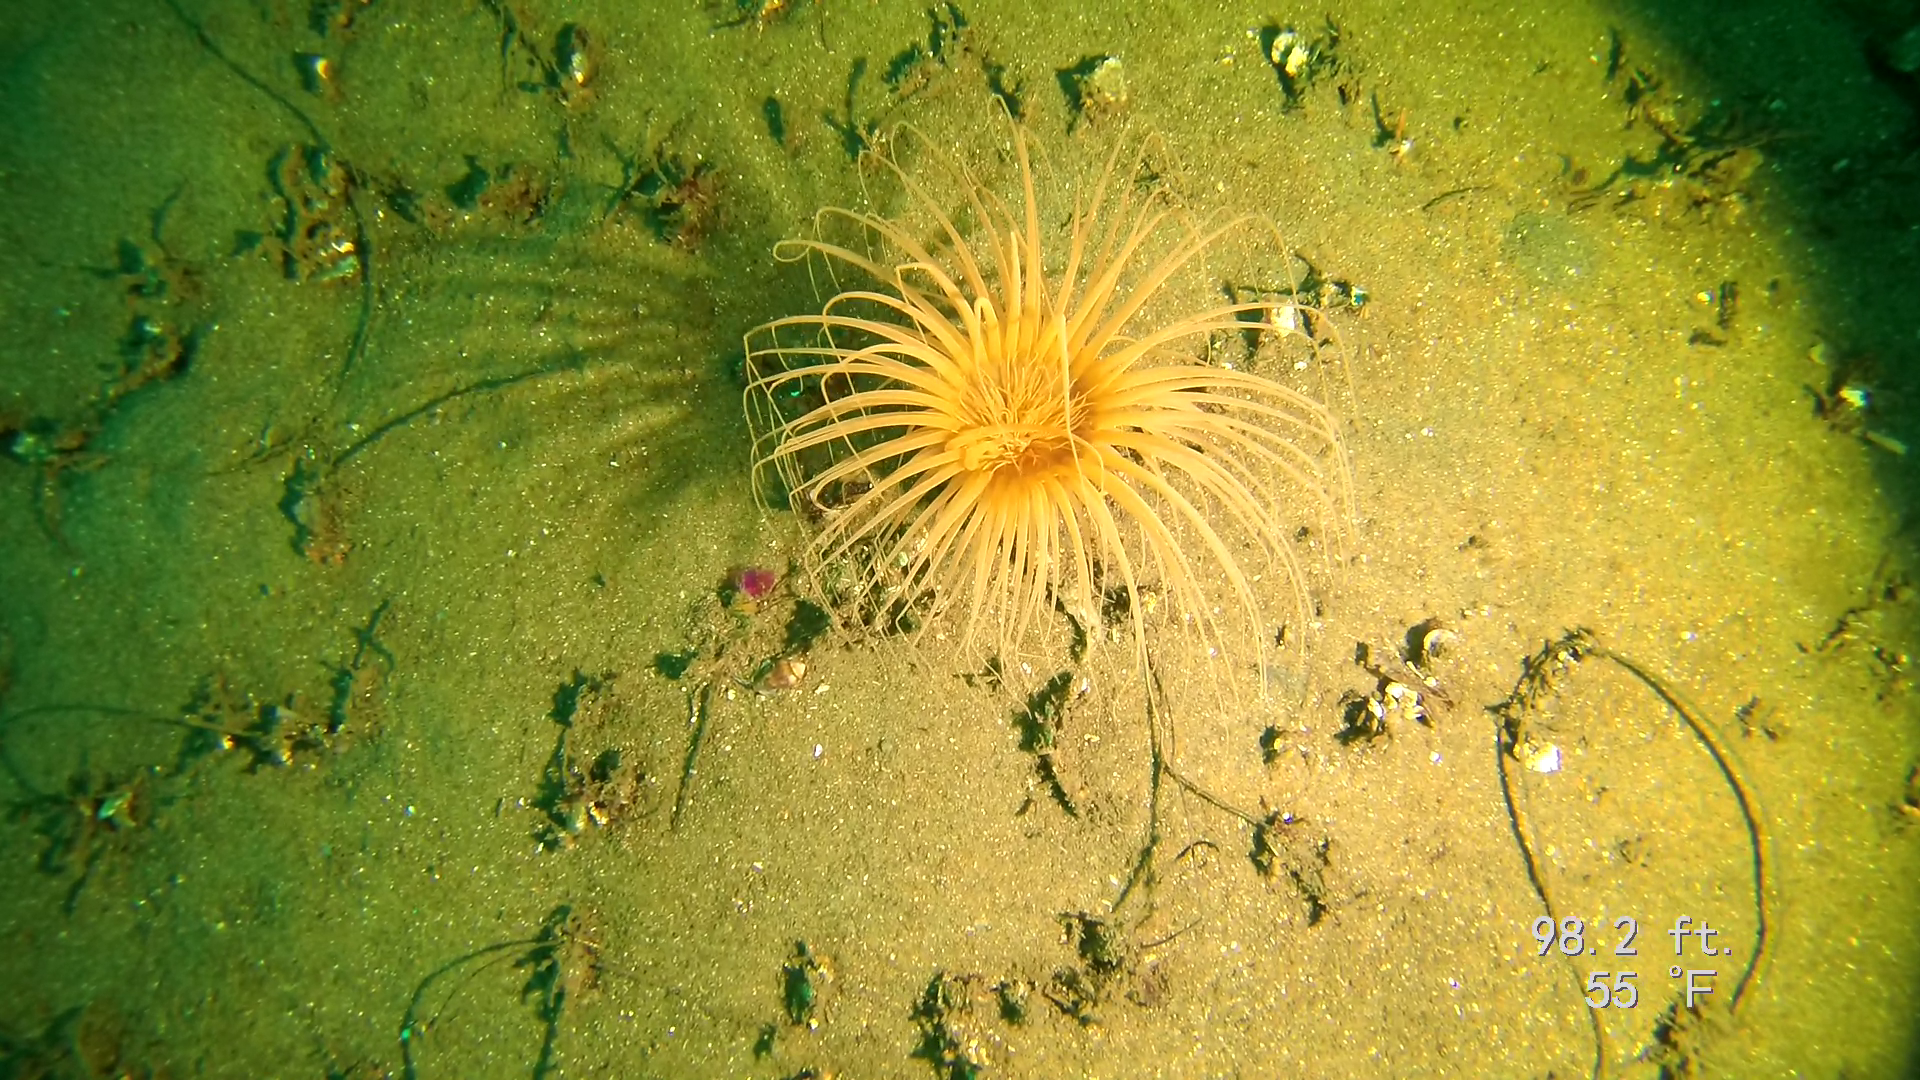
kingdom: Animalia
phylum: Cnidaria
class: Anthozoa
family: Cerianthidae
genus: Pachycerianthus
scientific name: Pachycerianthus fimbriatus
